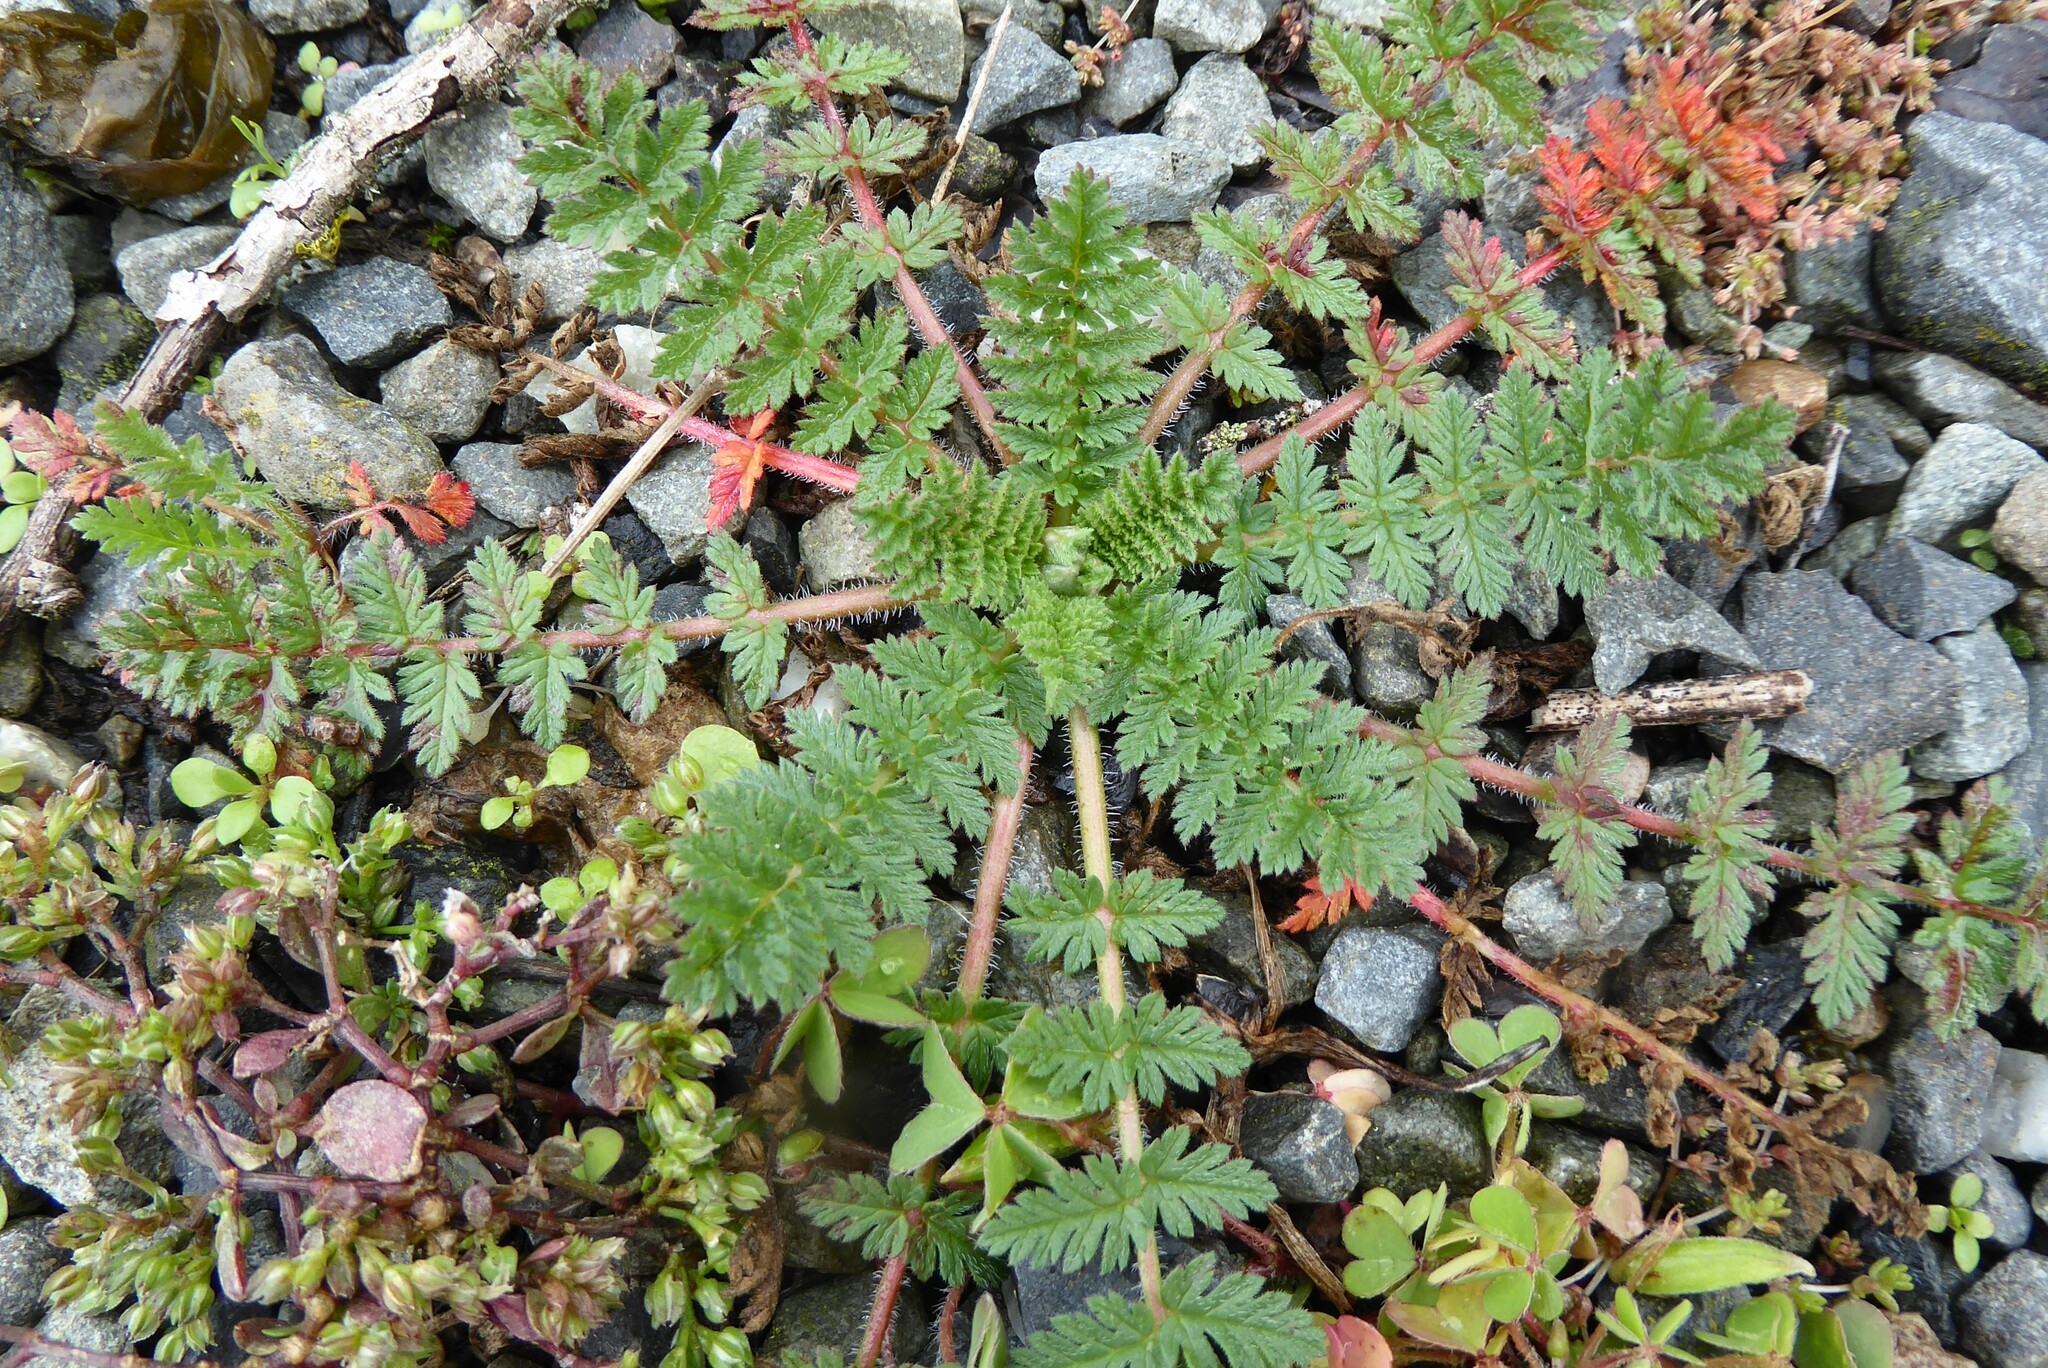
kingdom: Plantae
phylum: Tracheophyta
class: Magnoliopsida
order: Geraniales
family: Geraniaceae
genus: Erodium
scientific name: Erodium cicutarium
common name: Common stork's-bill
